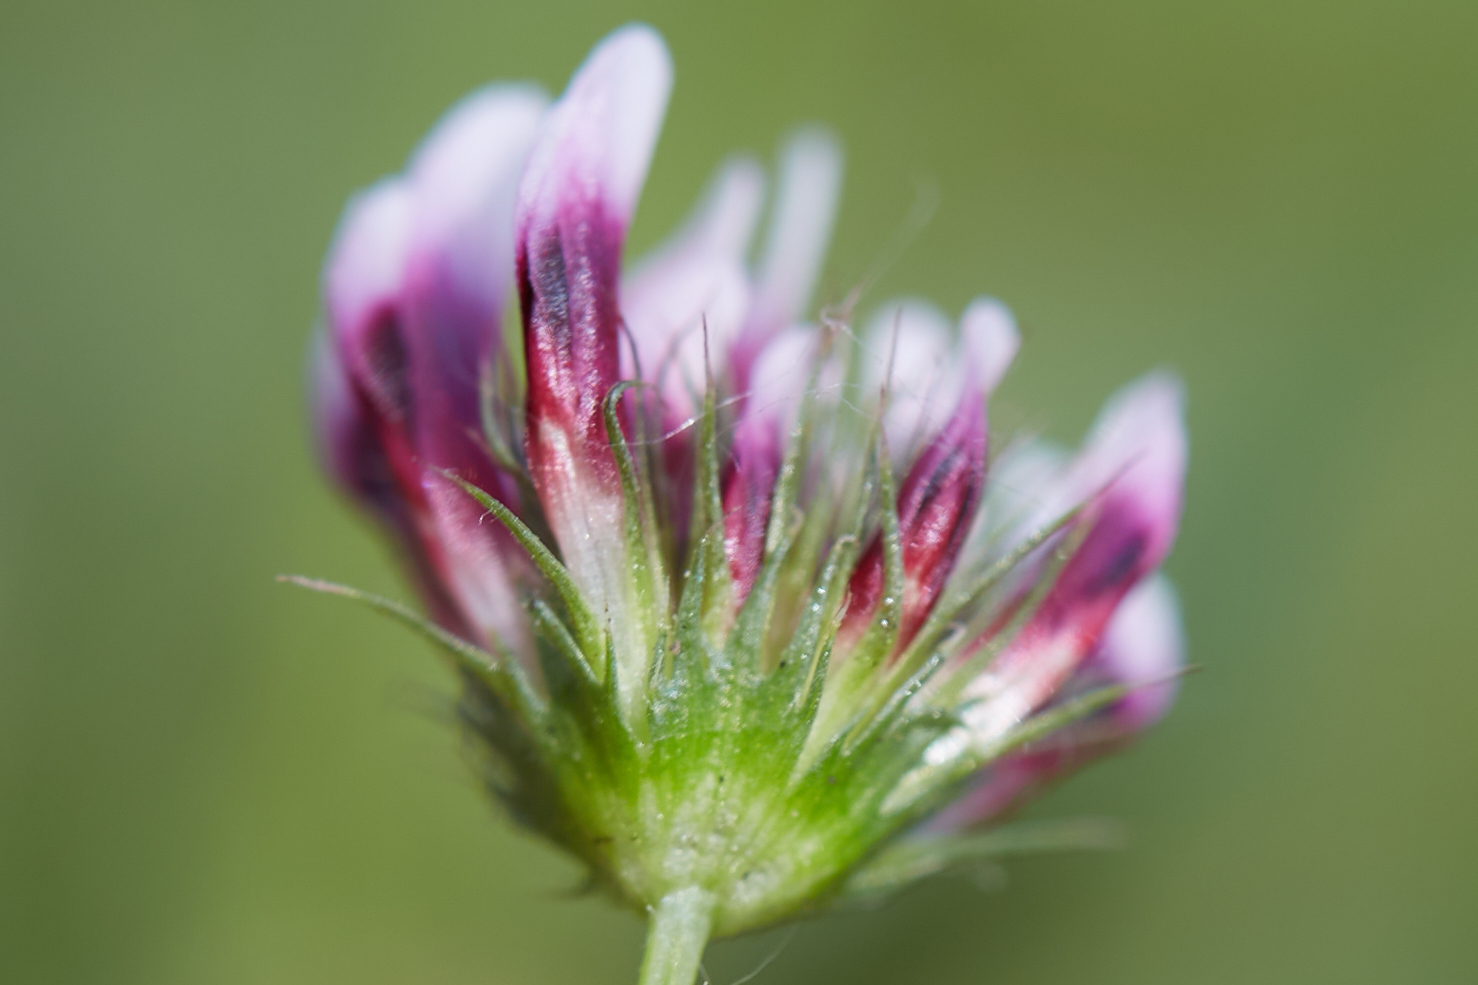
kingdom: Plantae
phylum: Tracheophyta
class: Magnoliopsida
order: Fabales
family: Fabaceae
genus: Trifolium
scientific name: Trifolium variegatum
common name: Whitetip clover
